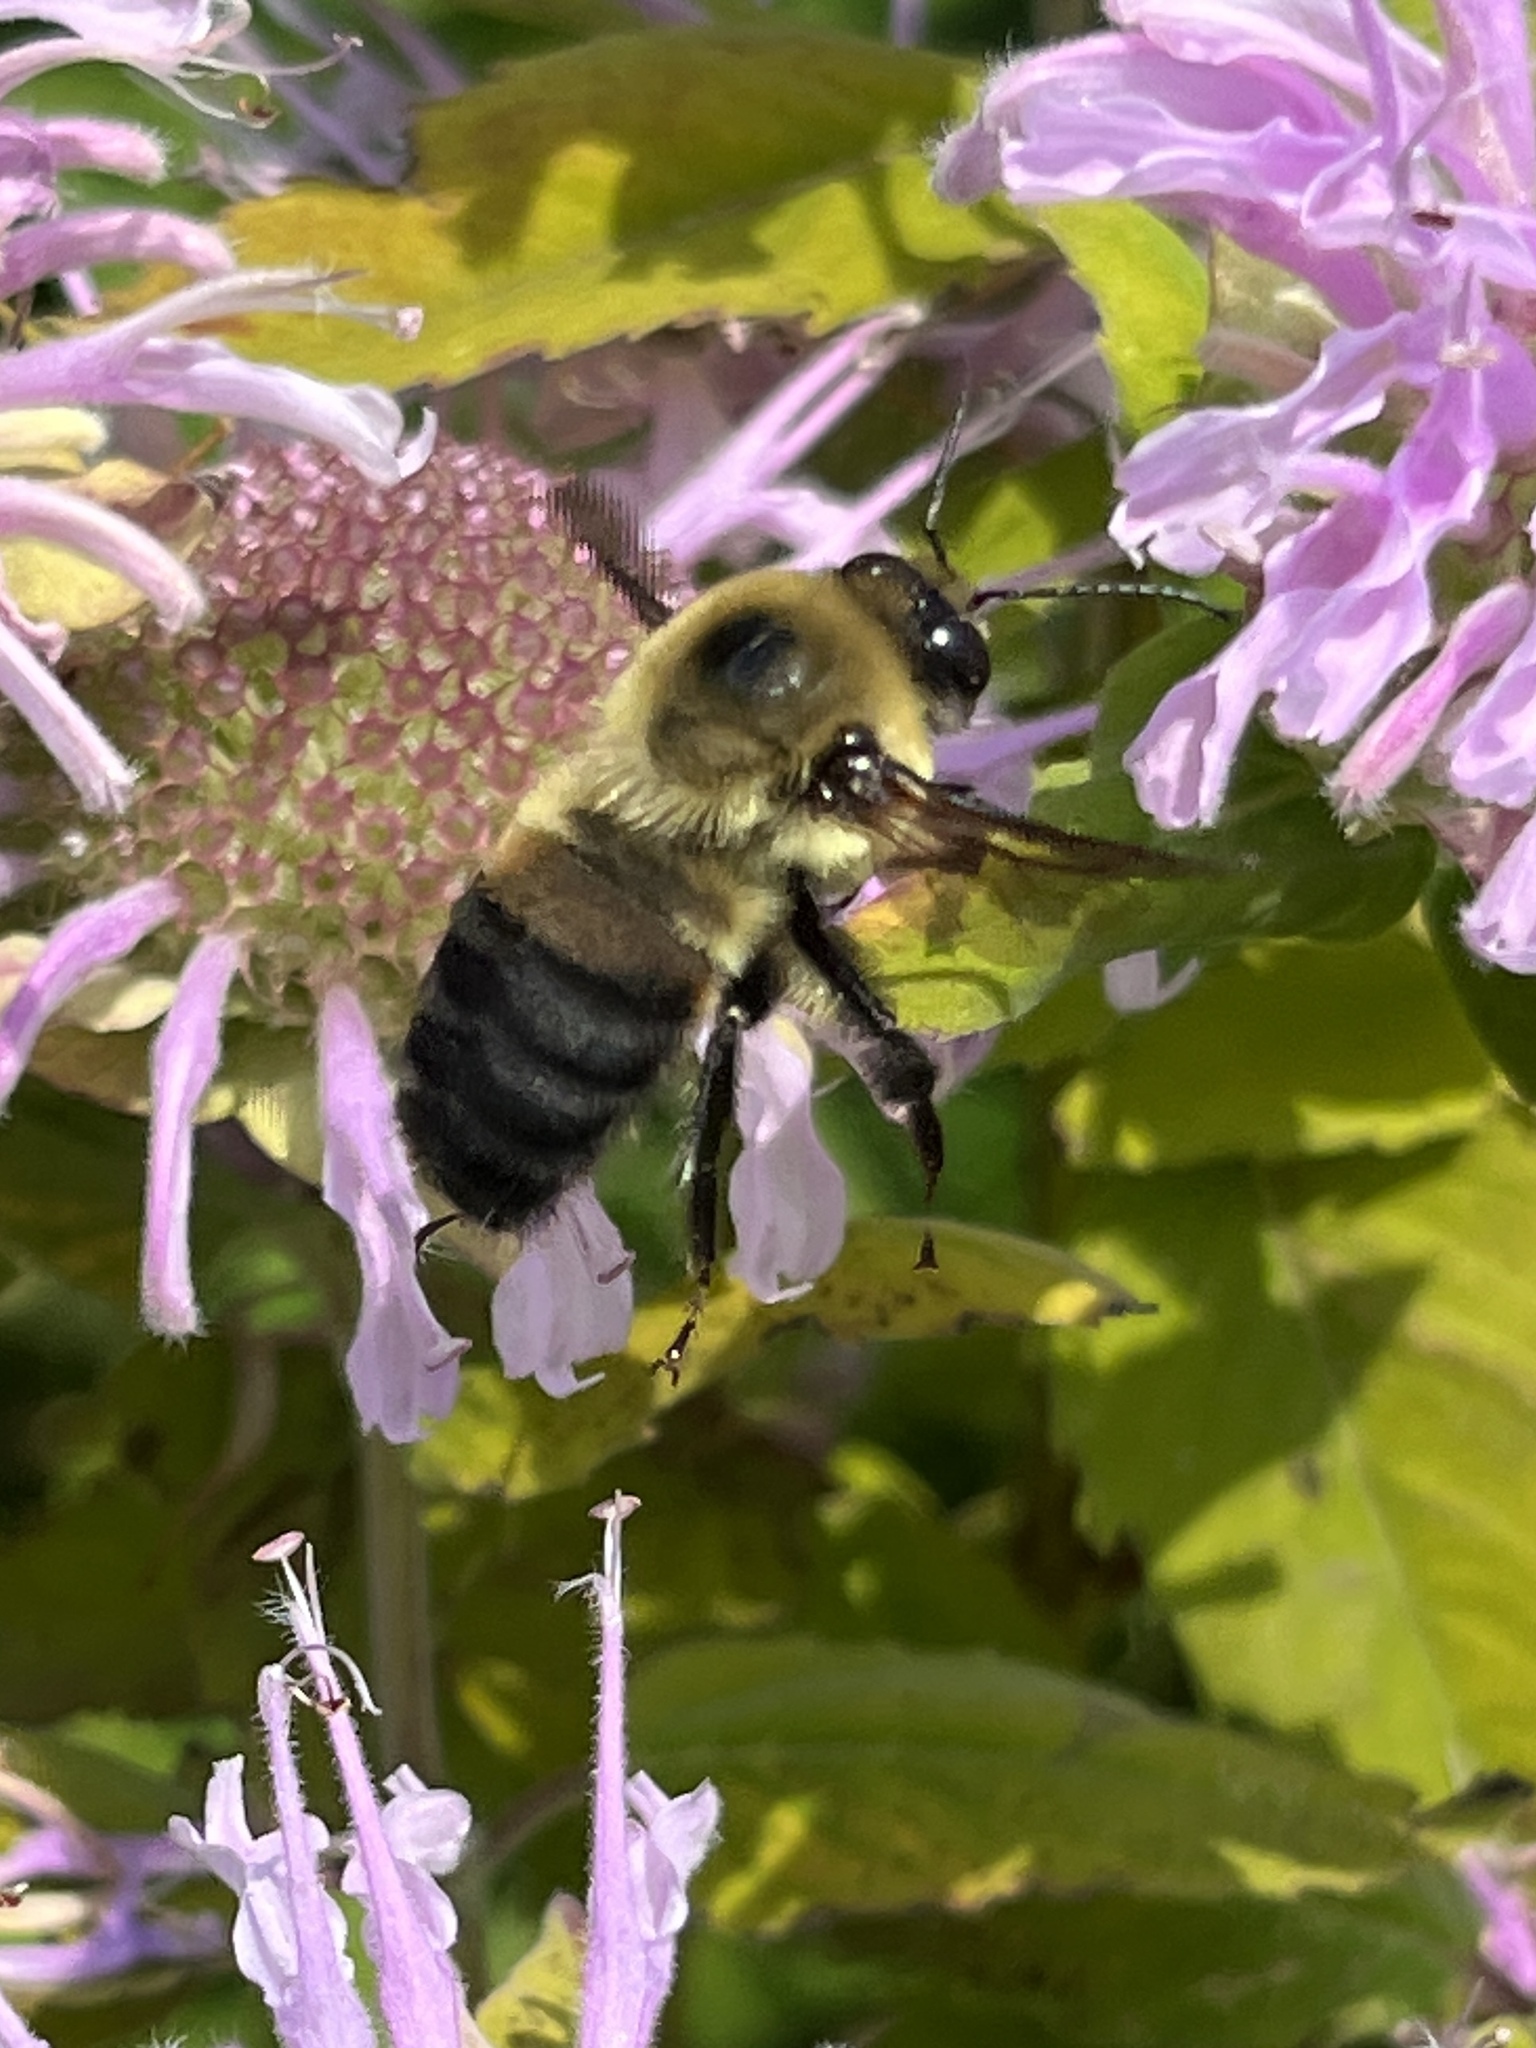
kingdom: Animalia
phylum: Arthropoda
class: Insecta
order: Hymenoptera
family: Apidae
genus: Bombus
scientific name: Bombus griseocollis
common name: Brown-belted bumble bee
